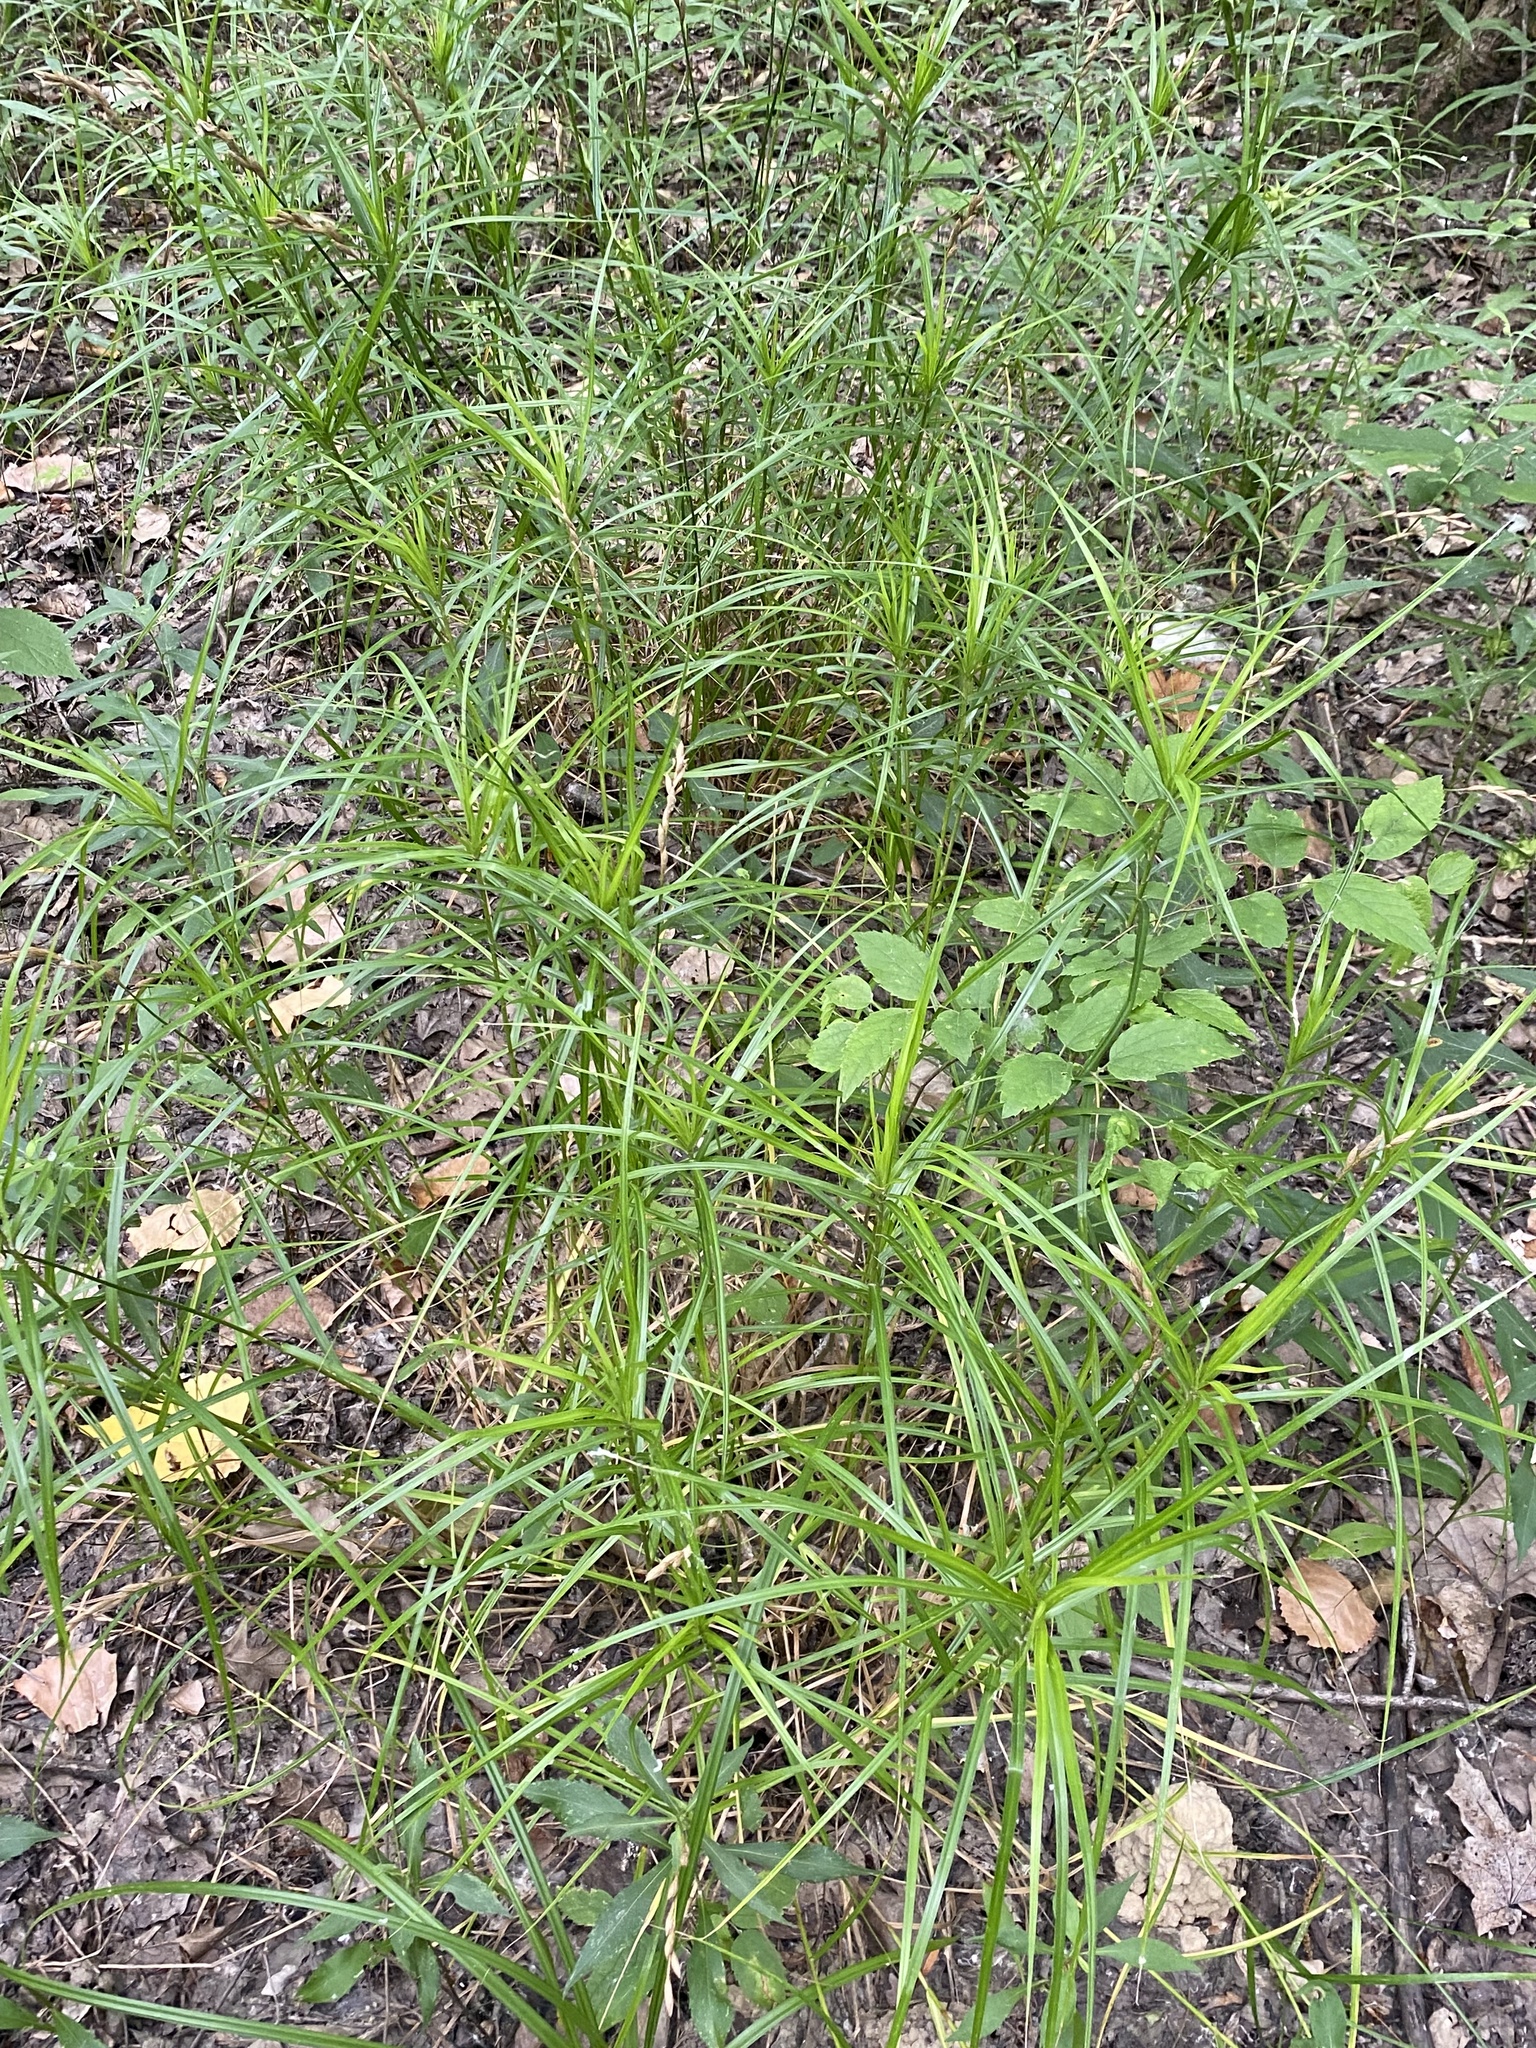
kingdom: Plantae
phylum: Tracheophyta
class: Liliopsida
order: Poales
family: Cyperaceae
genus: Carex
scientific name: Carex muskingumensis
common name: Muskingum sedge
